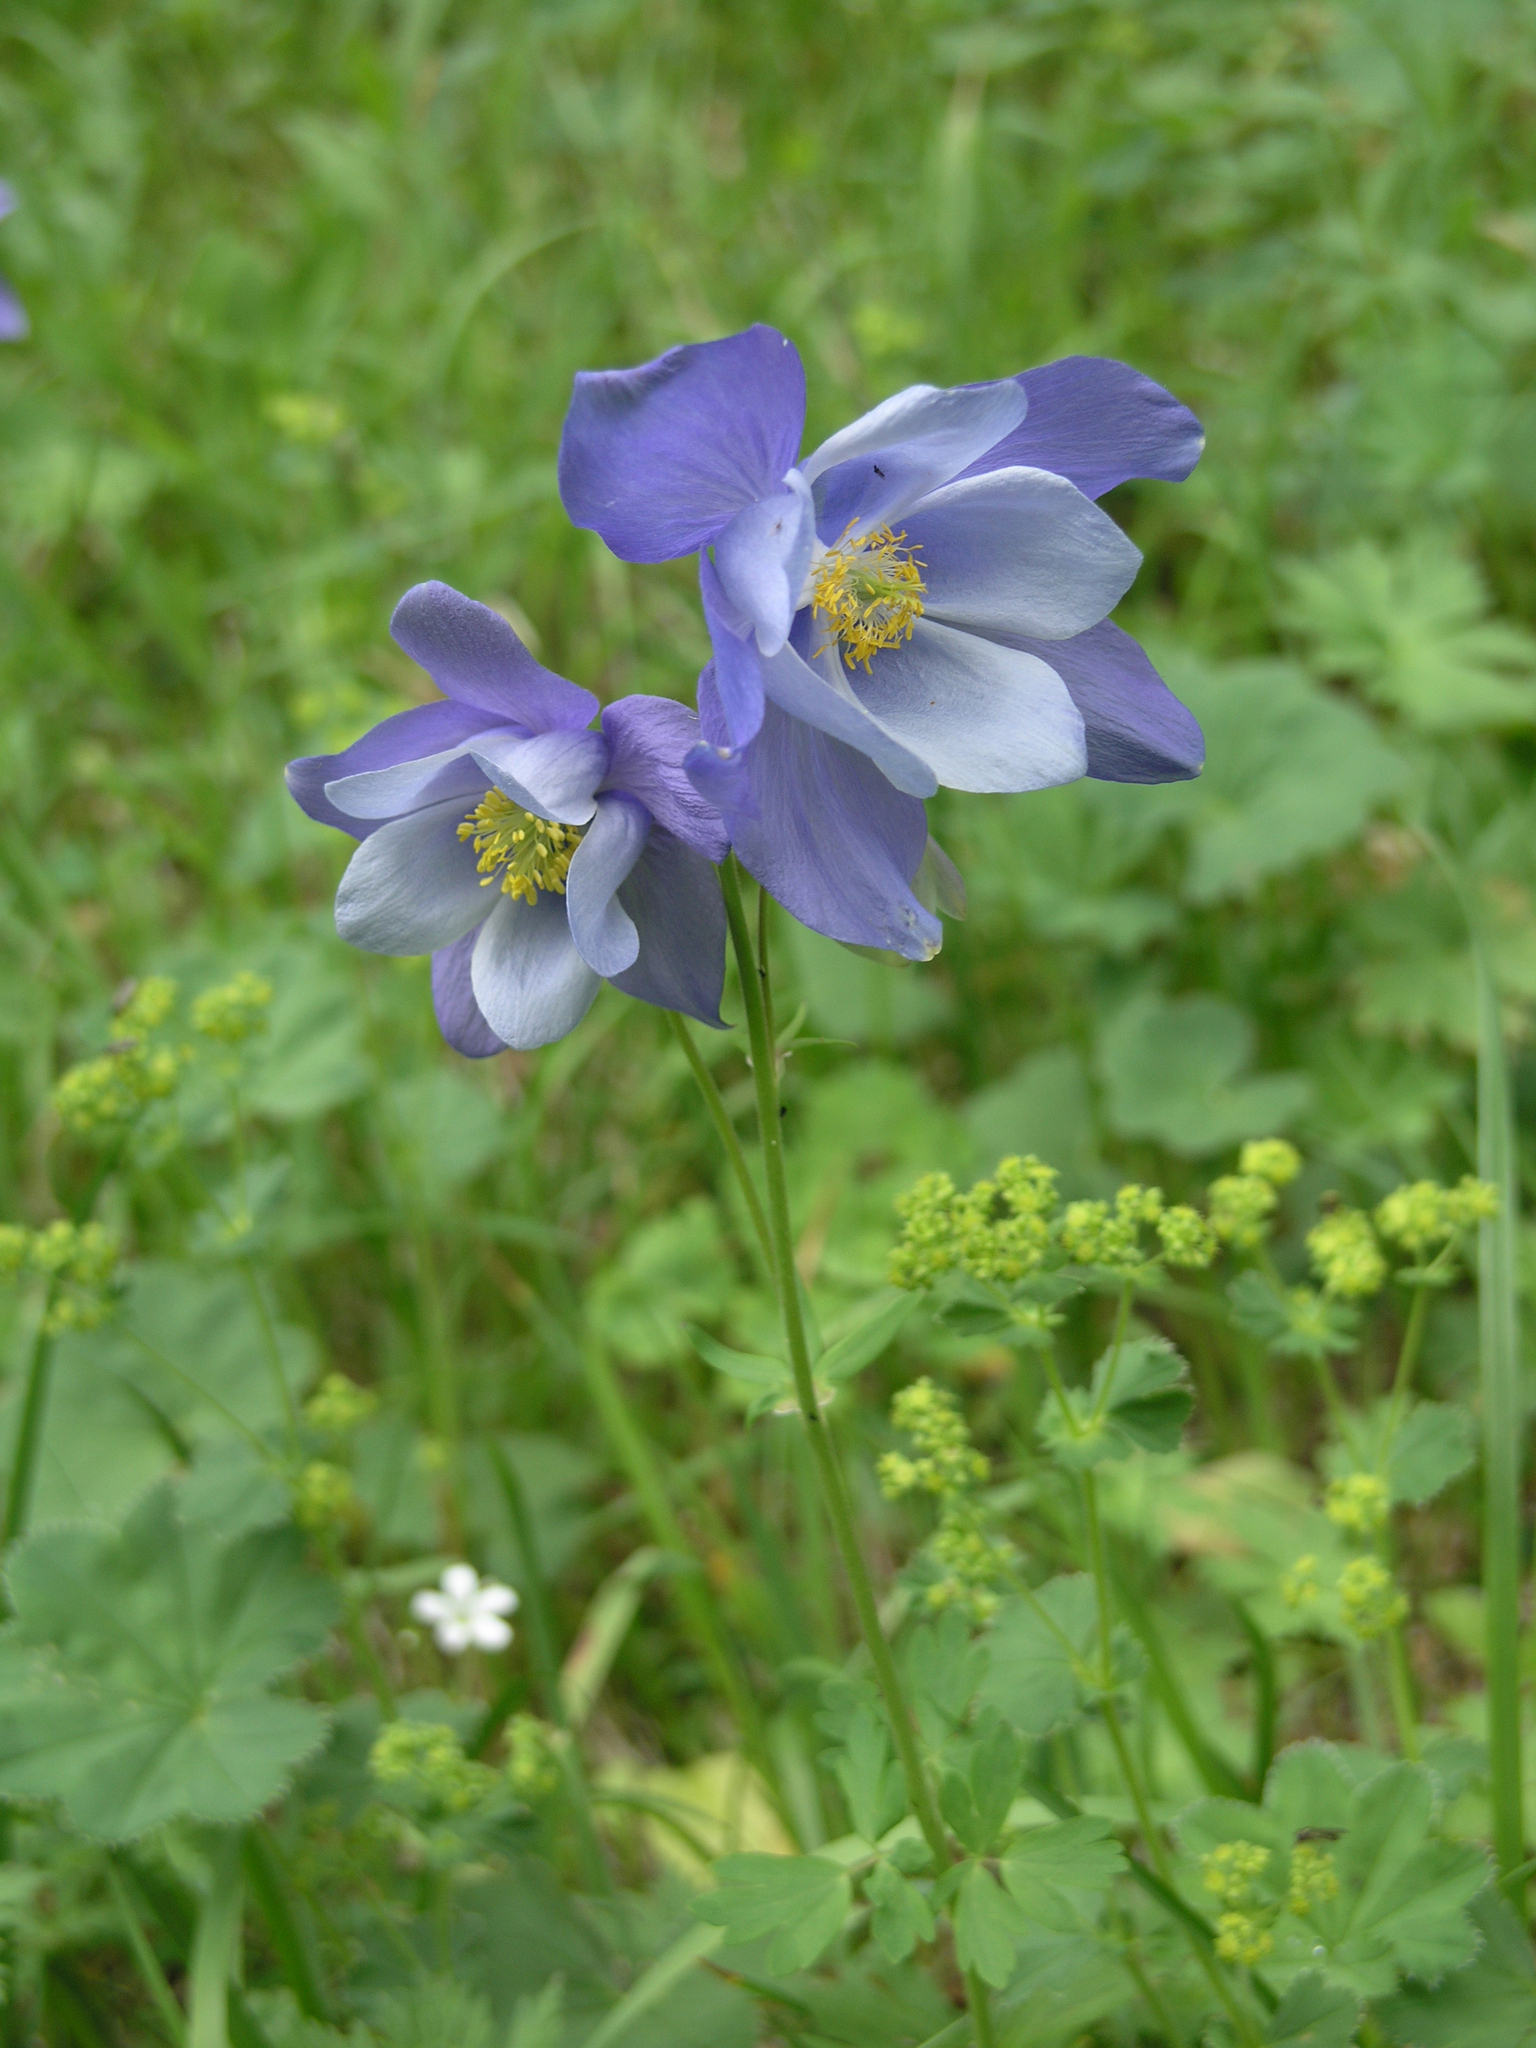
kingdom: Plantae
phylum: Tracheophyta
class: Magnoliopsida
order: Ranunculales
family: Ranunculaceae
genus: Aquilegia
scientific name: Aquilegia glandulosa
